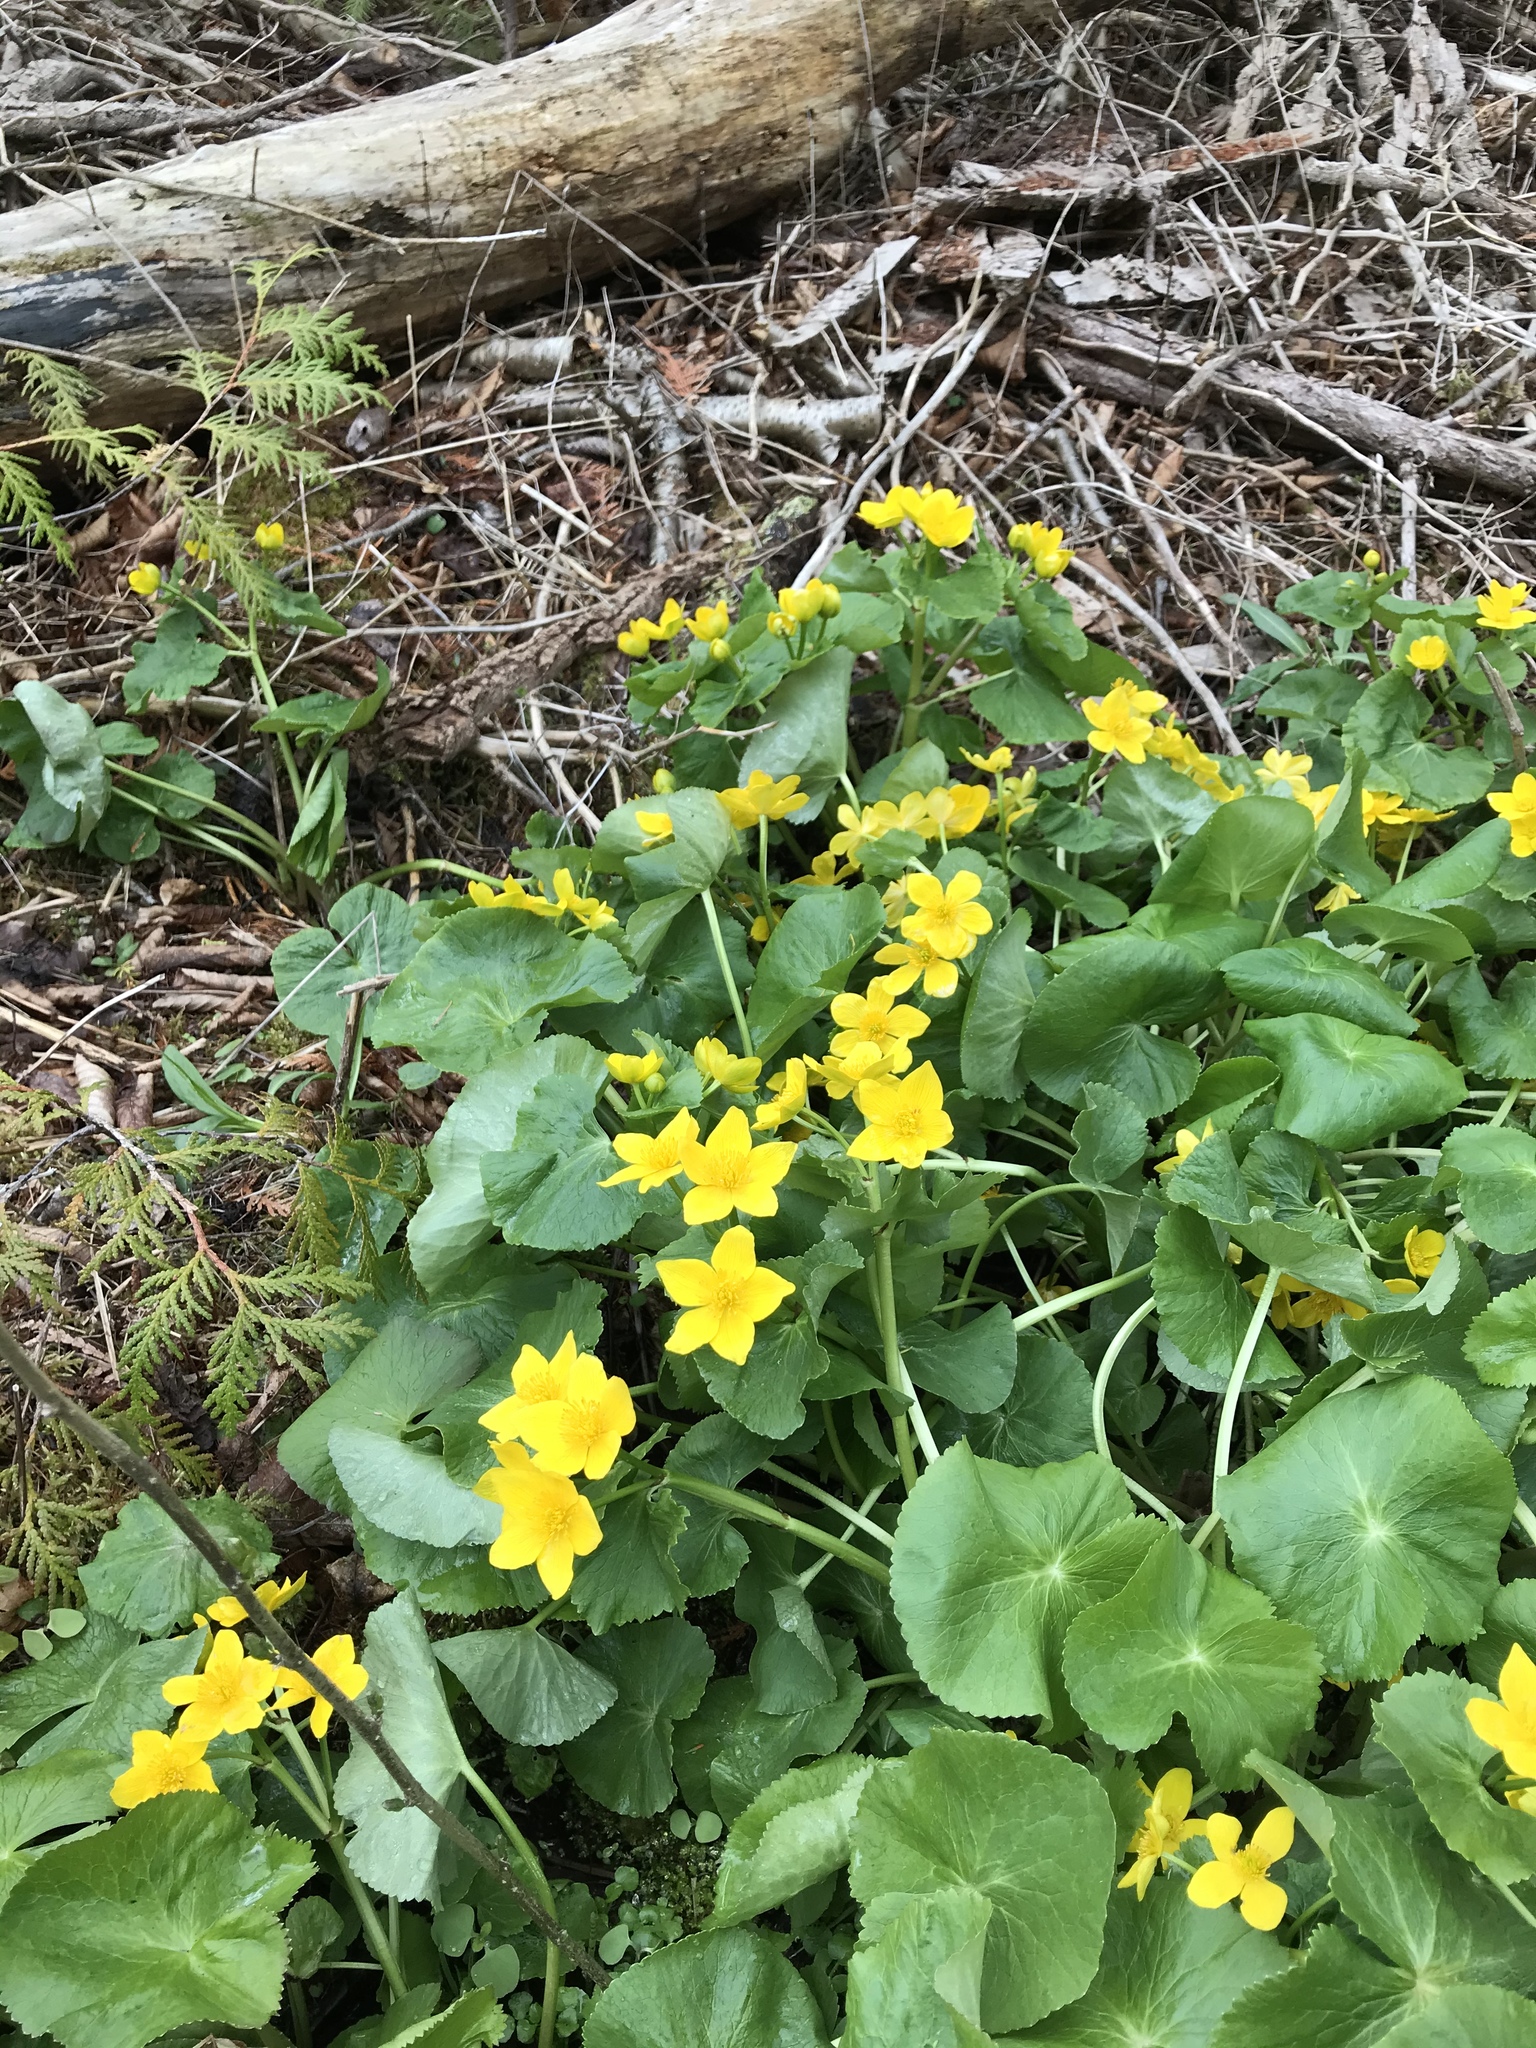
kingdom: Plantae
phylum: Tracheophyta
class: Magnoliopsida
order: Ranunculales
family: Ranunculaceae
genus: Caltha
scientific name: Caltha palustris
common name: Marsh marigold
